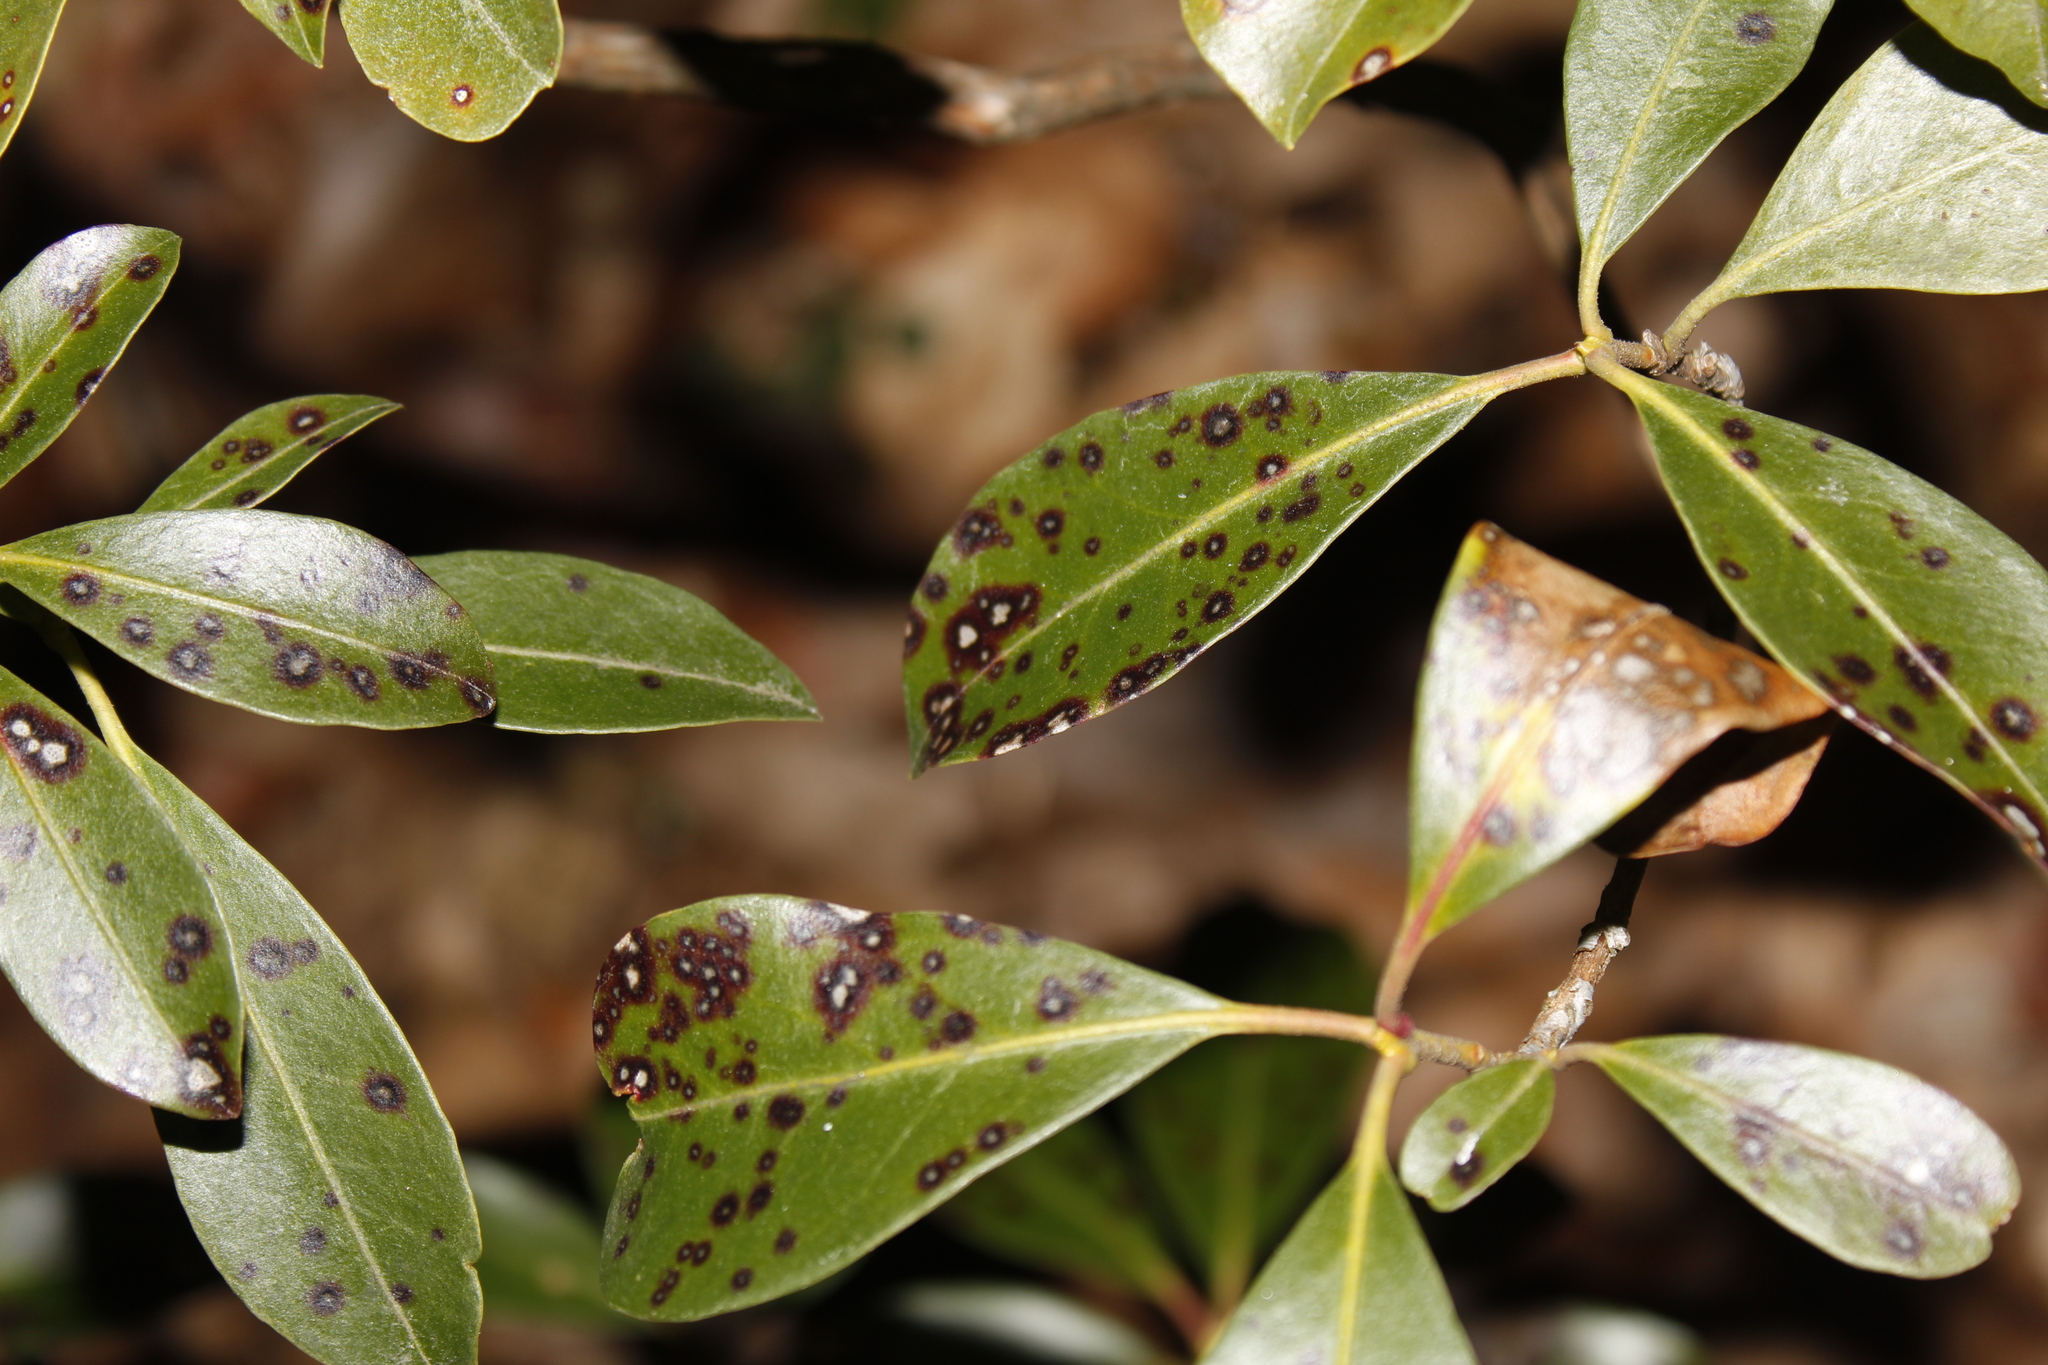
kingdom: Fungi
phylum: Ascomycota
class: Dothideomycetes
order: Mycosphaerellales
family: Mycosphaerellaceae
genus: Mycosphaerella
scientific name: Mycosphaerella colorata
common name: Mountain laurel leaf spot
